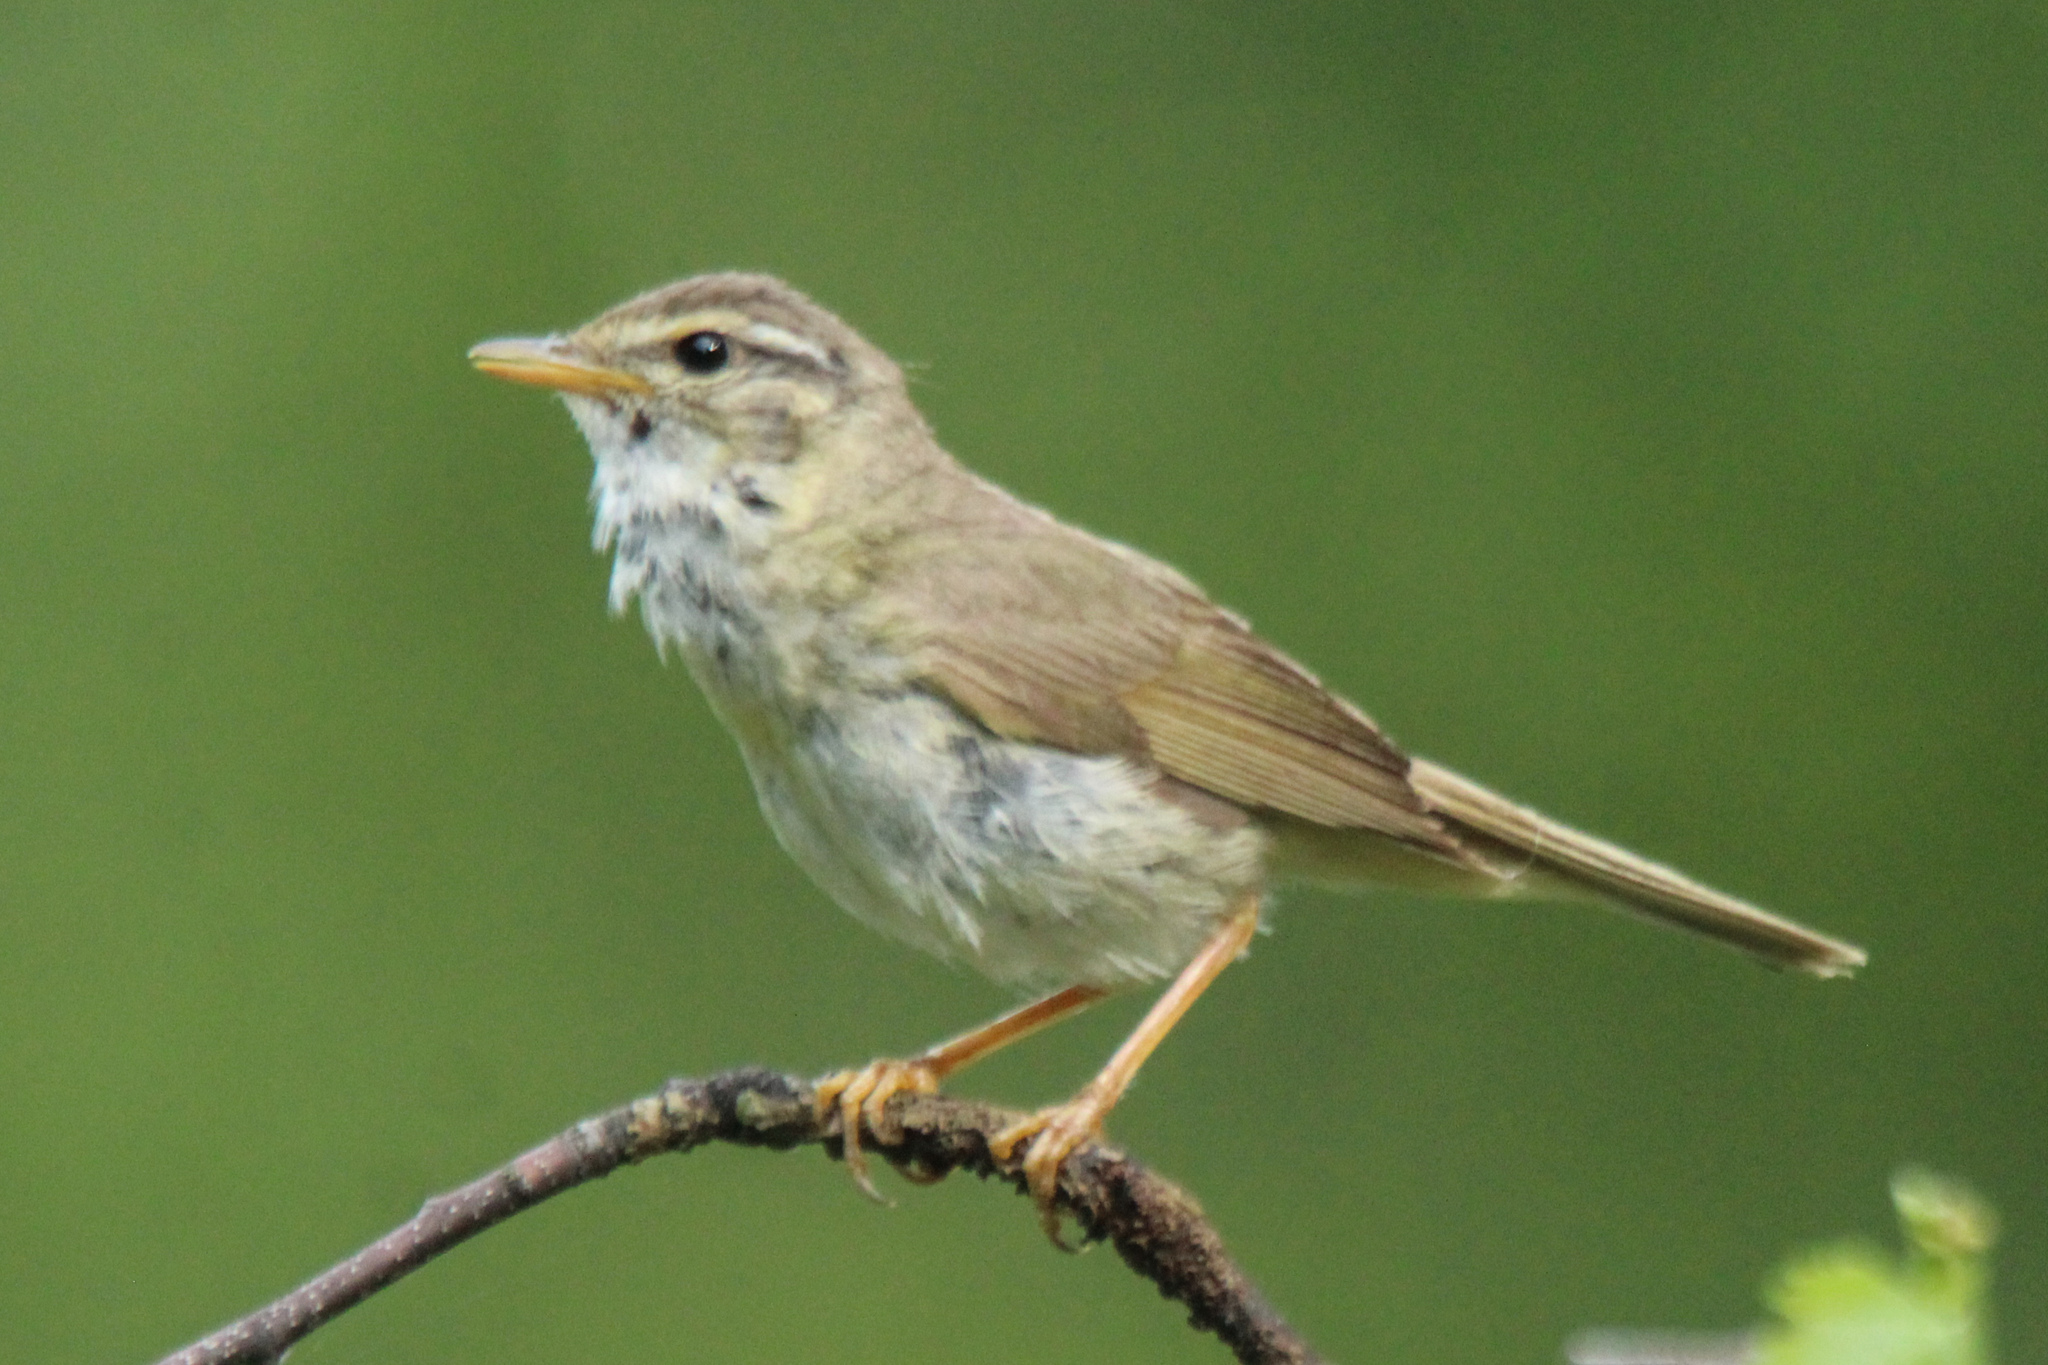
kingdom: Animalia
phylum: Chordata
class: Aves
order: Passeriformes
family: Phylloscopidae
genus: Phylloscopus
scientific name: Phylloscopus schwarzi
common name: Radde's warbler
